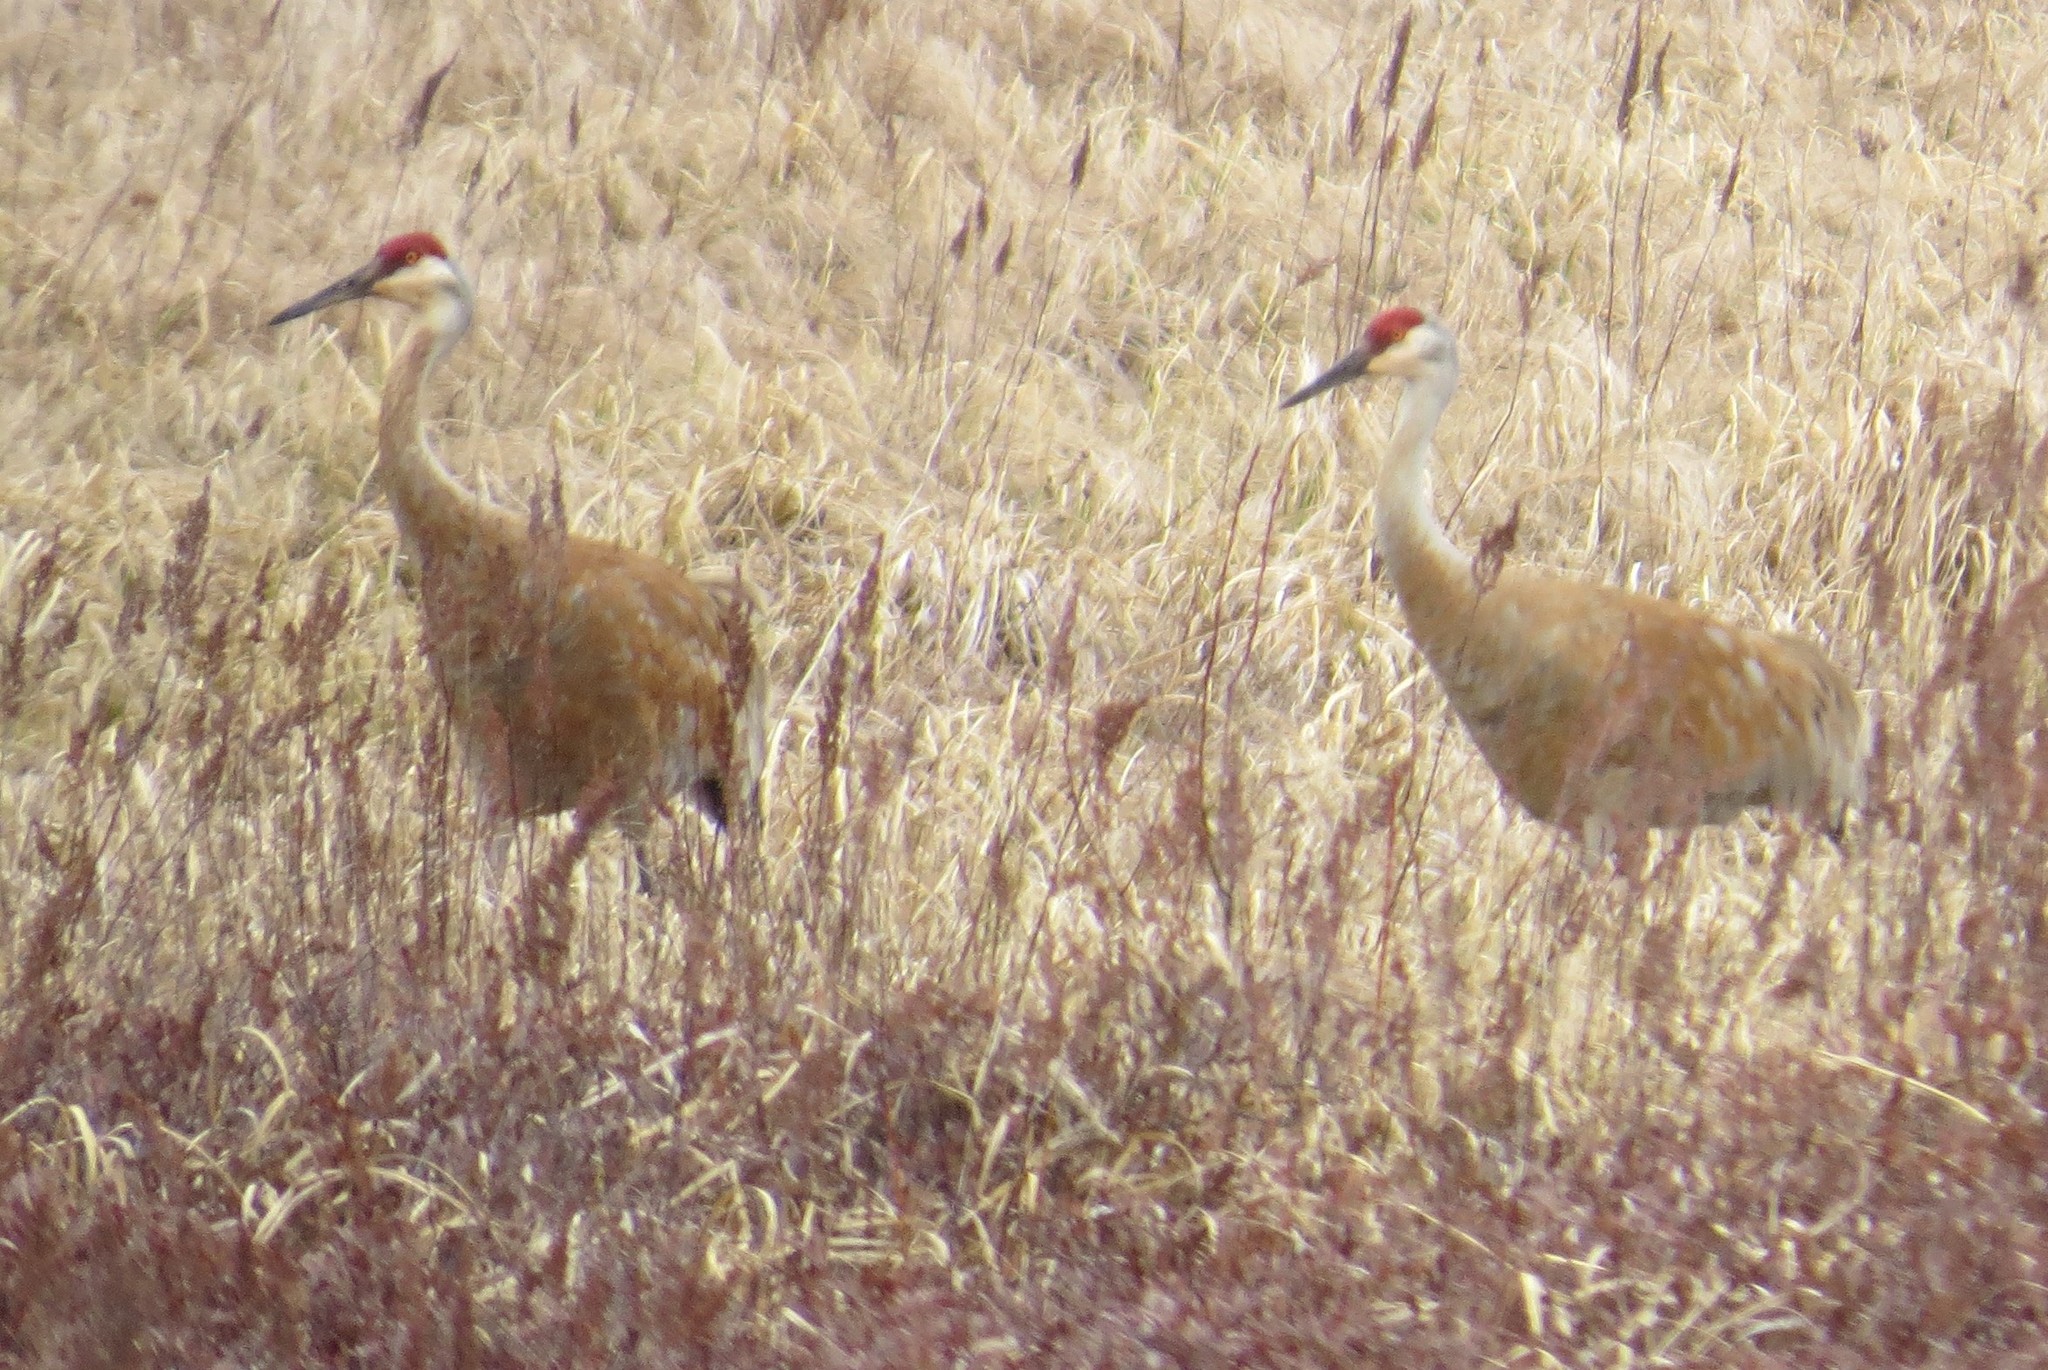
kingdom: Animalia
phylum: Chordata
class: Aves
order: Gruiformes
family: Gruidae
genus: Grus
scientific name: Grus canadensis
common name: Sandhill crane
